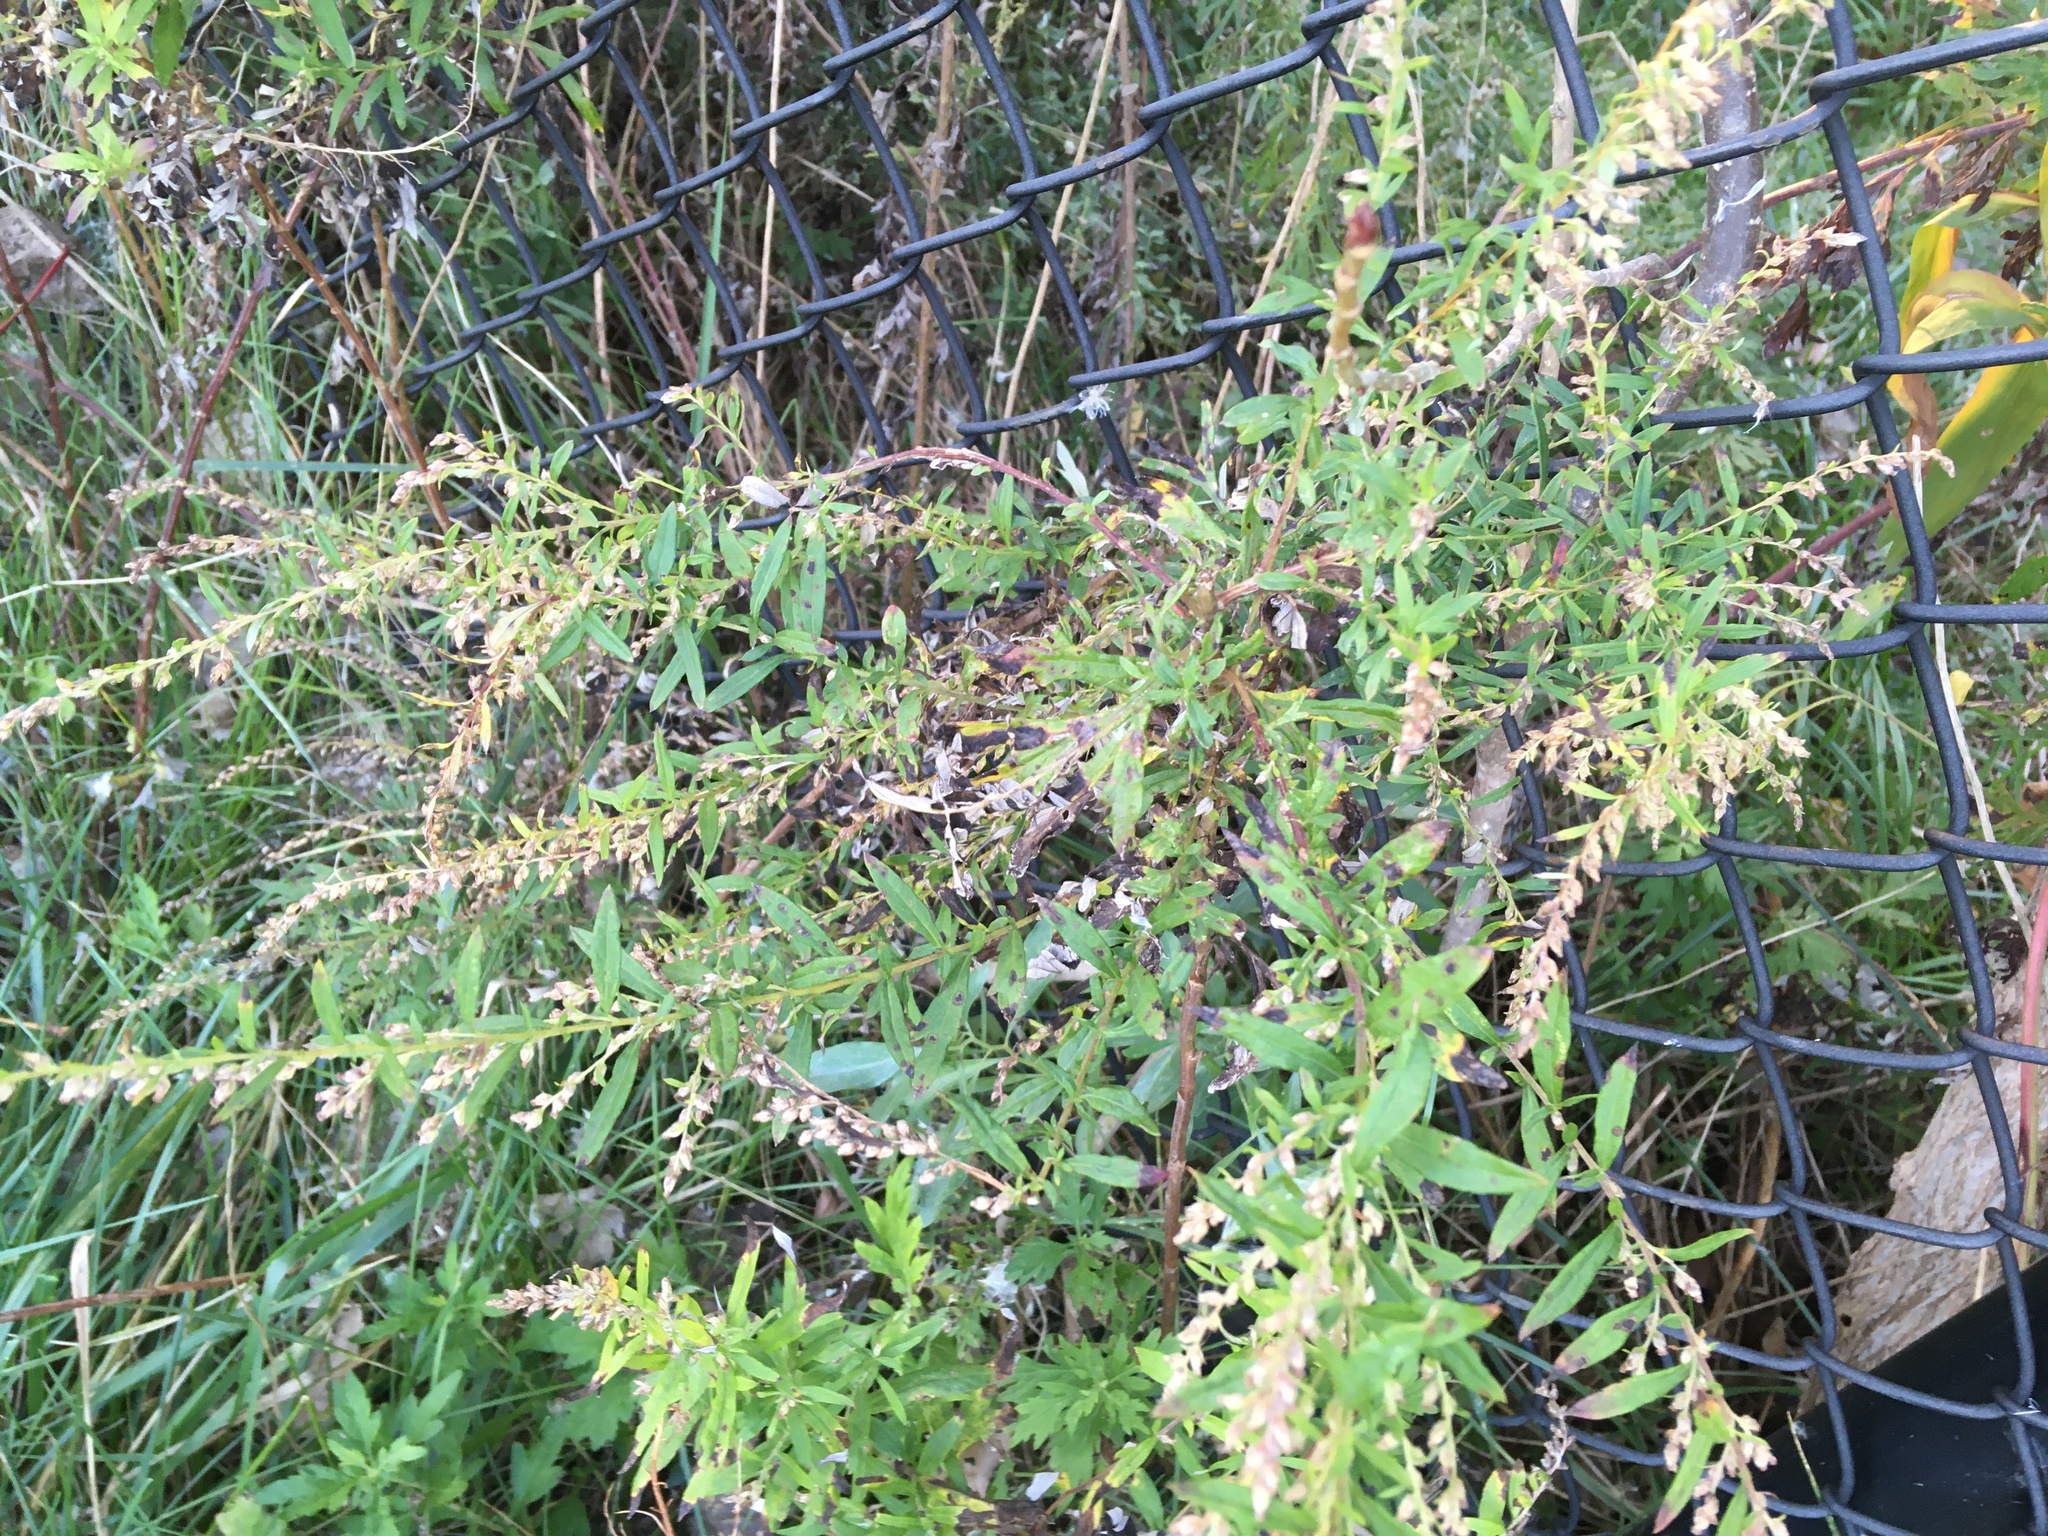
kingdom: Plantae
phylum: Tracheophyta
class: Magnoliopsida
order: Asterales
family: Asteraceae
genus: Artemisia
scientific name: Artemisia vulgaris
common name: Mugwort
